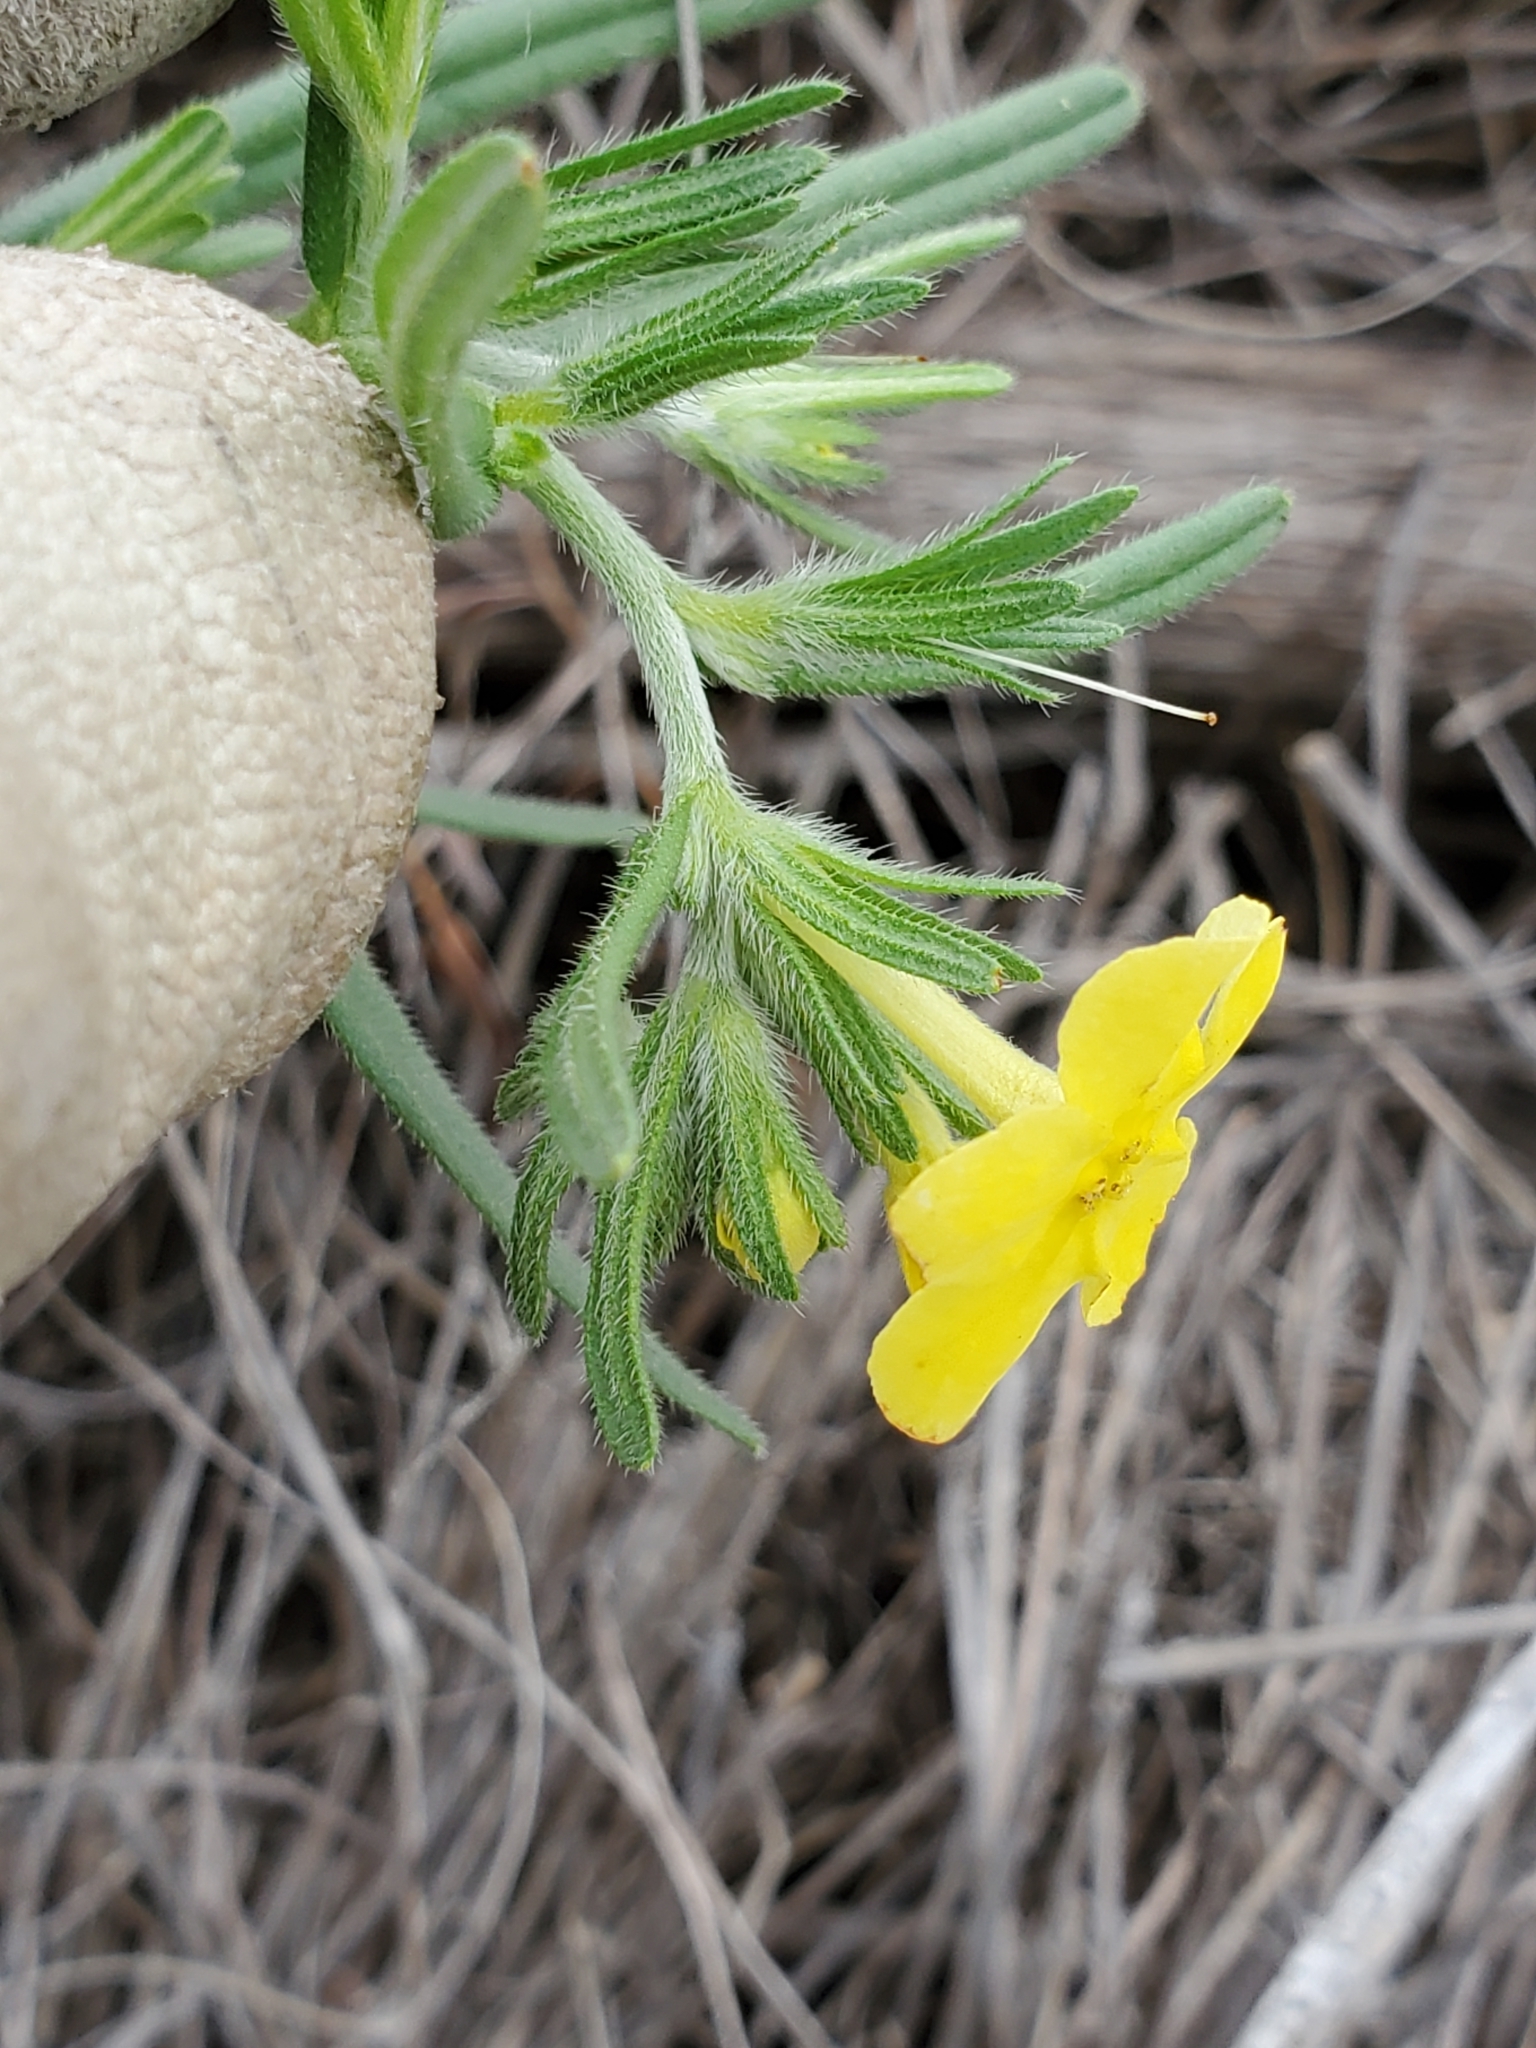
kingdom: Plantae
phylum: Tracheophyta
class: Magnoliopsida
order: Boraginales
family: Boraginaceae
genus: Lithospermum
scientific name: Lithospermum mirabile
